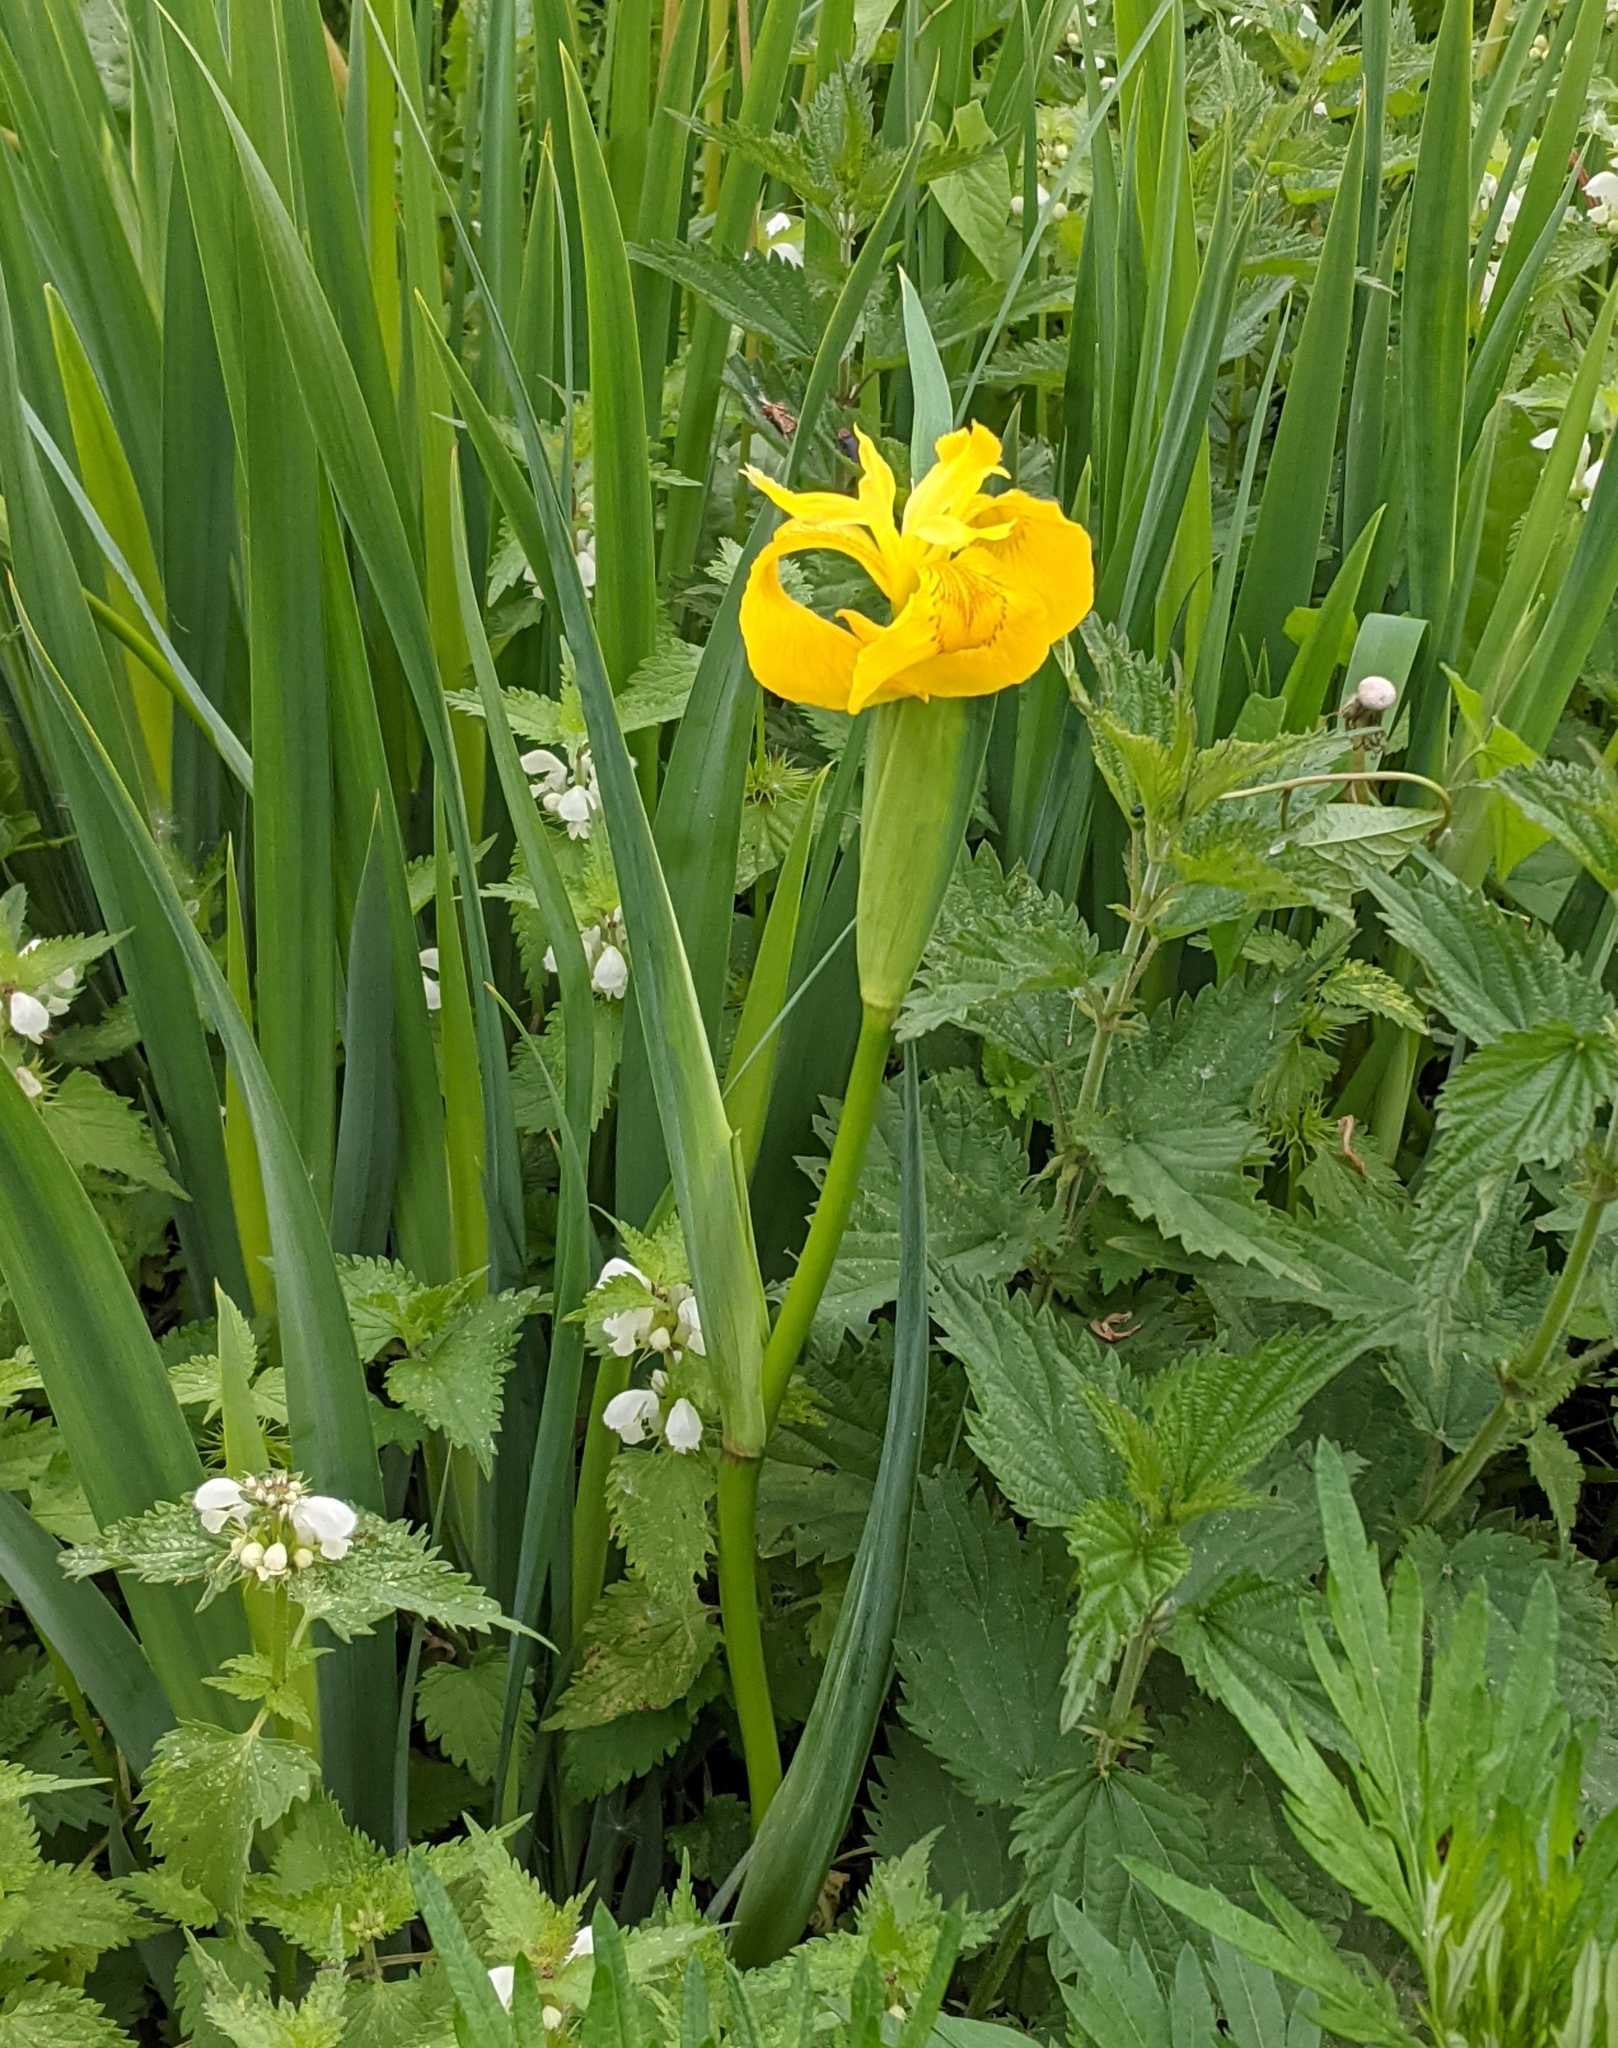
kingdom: Plantae
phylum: Tracheophyta
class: Liliopsida
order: Asparagales
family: Iridaceae
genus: Iris
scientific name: Iris pseudacorus
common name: Yellow flag
